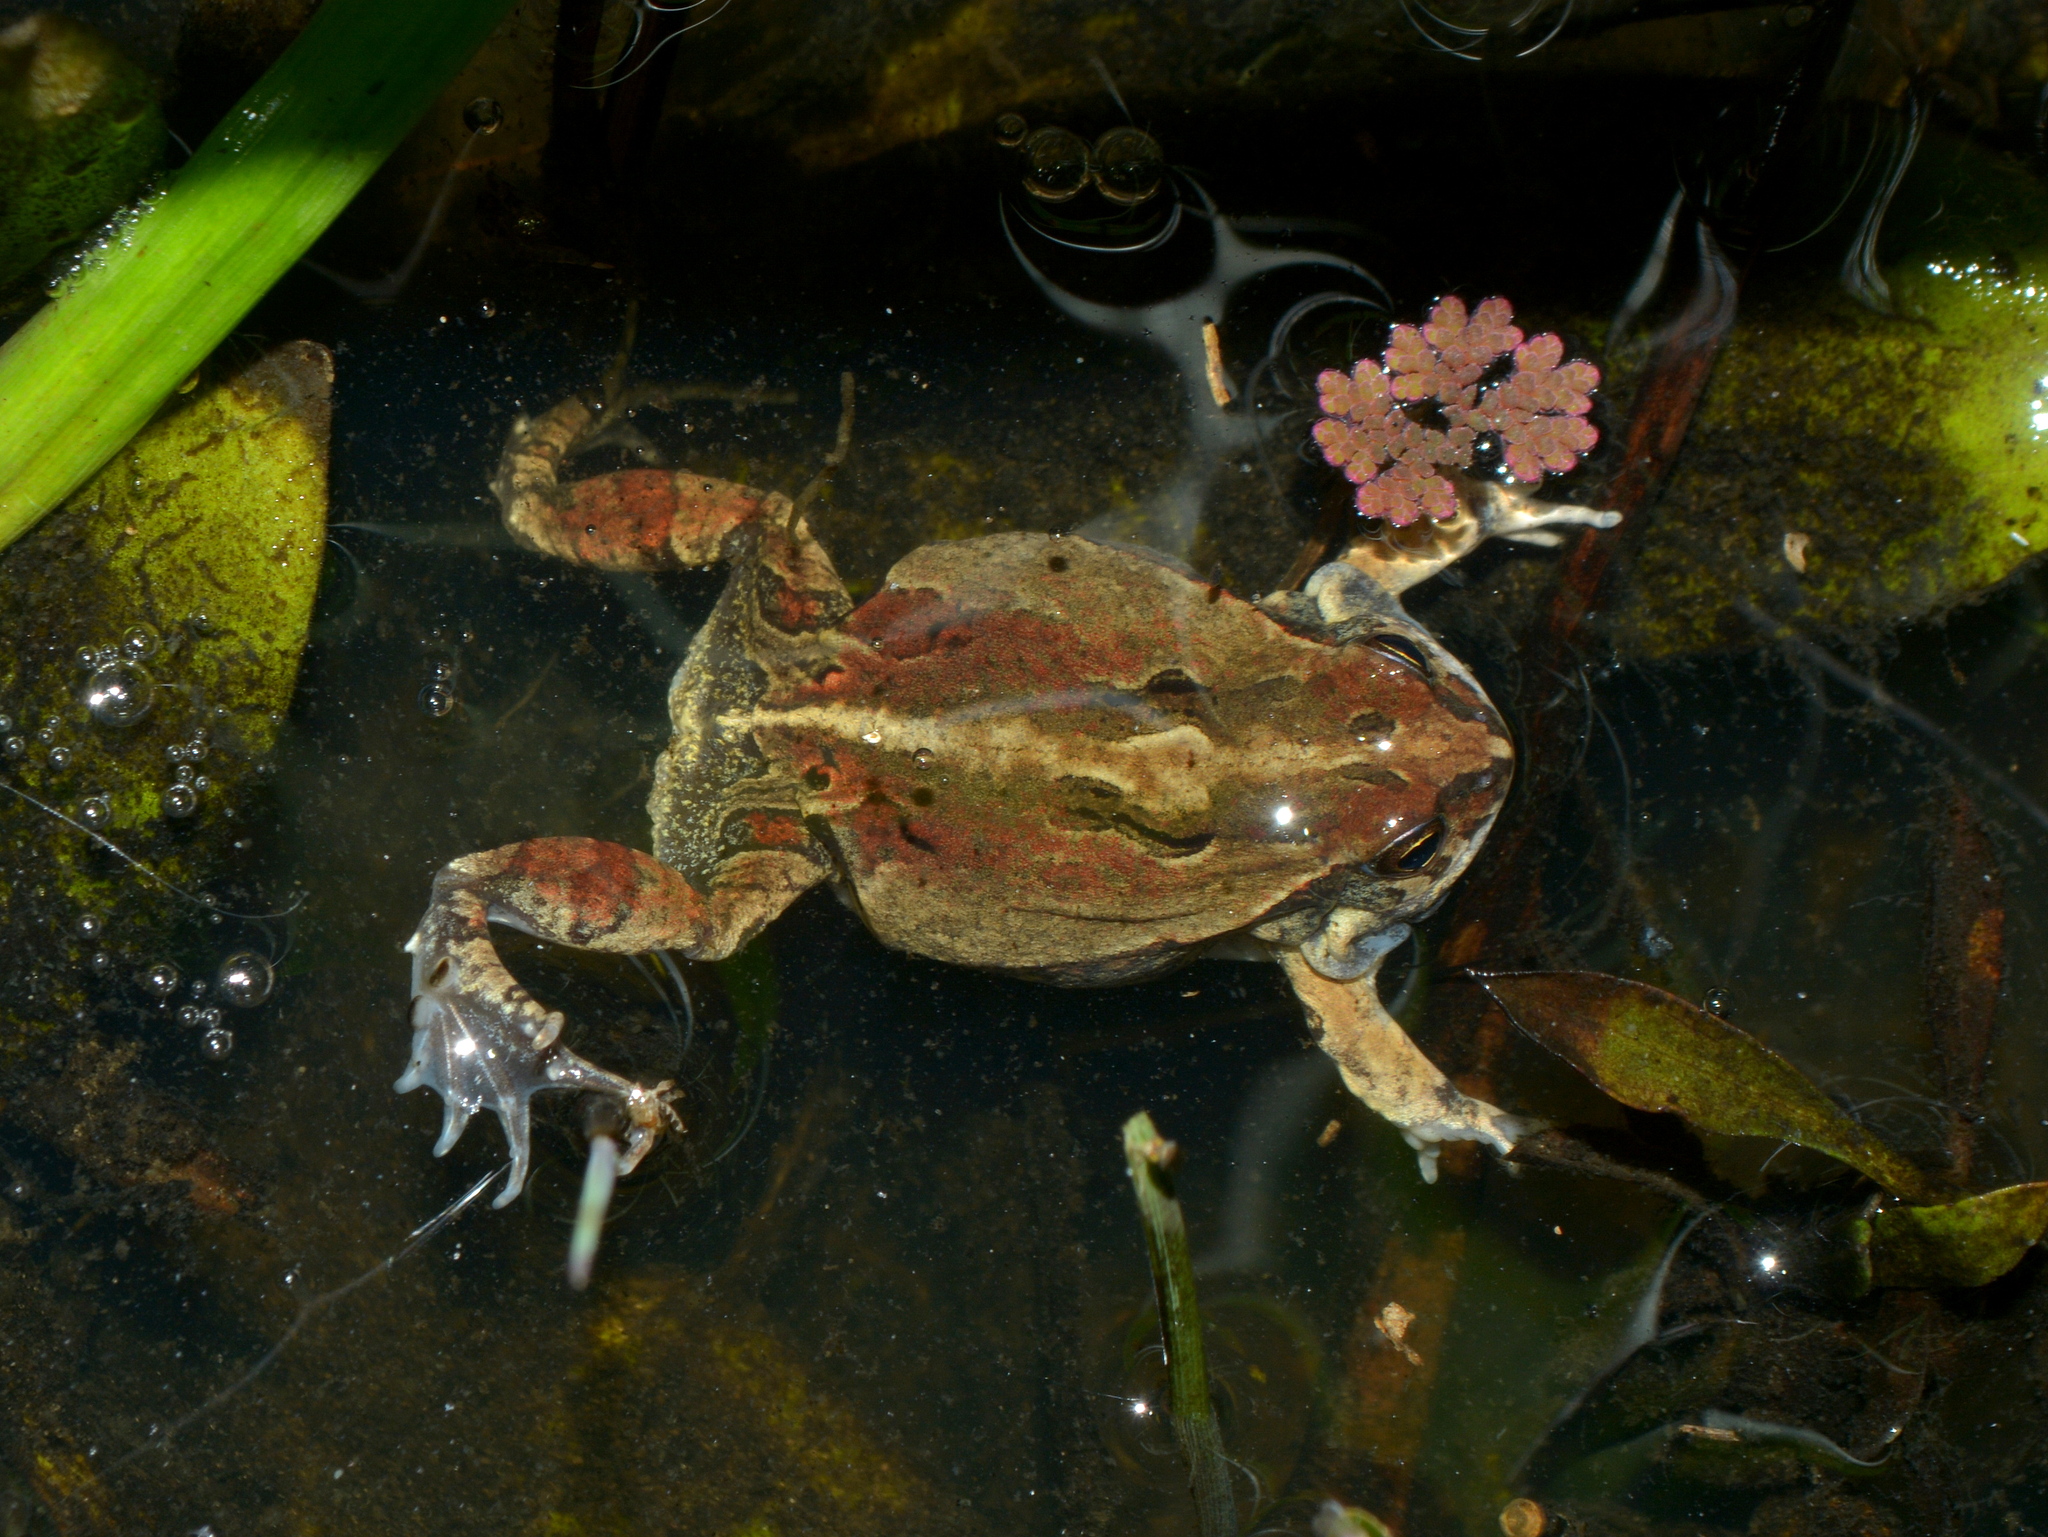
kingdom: Animalia
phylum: Chordata
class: Amphibia
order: Anura
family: Leptodactylidae
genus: Physalaemus
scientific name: Physalaemus biligonigerus
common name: Weeping frog
